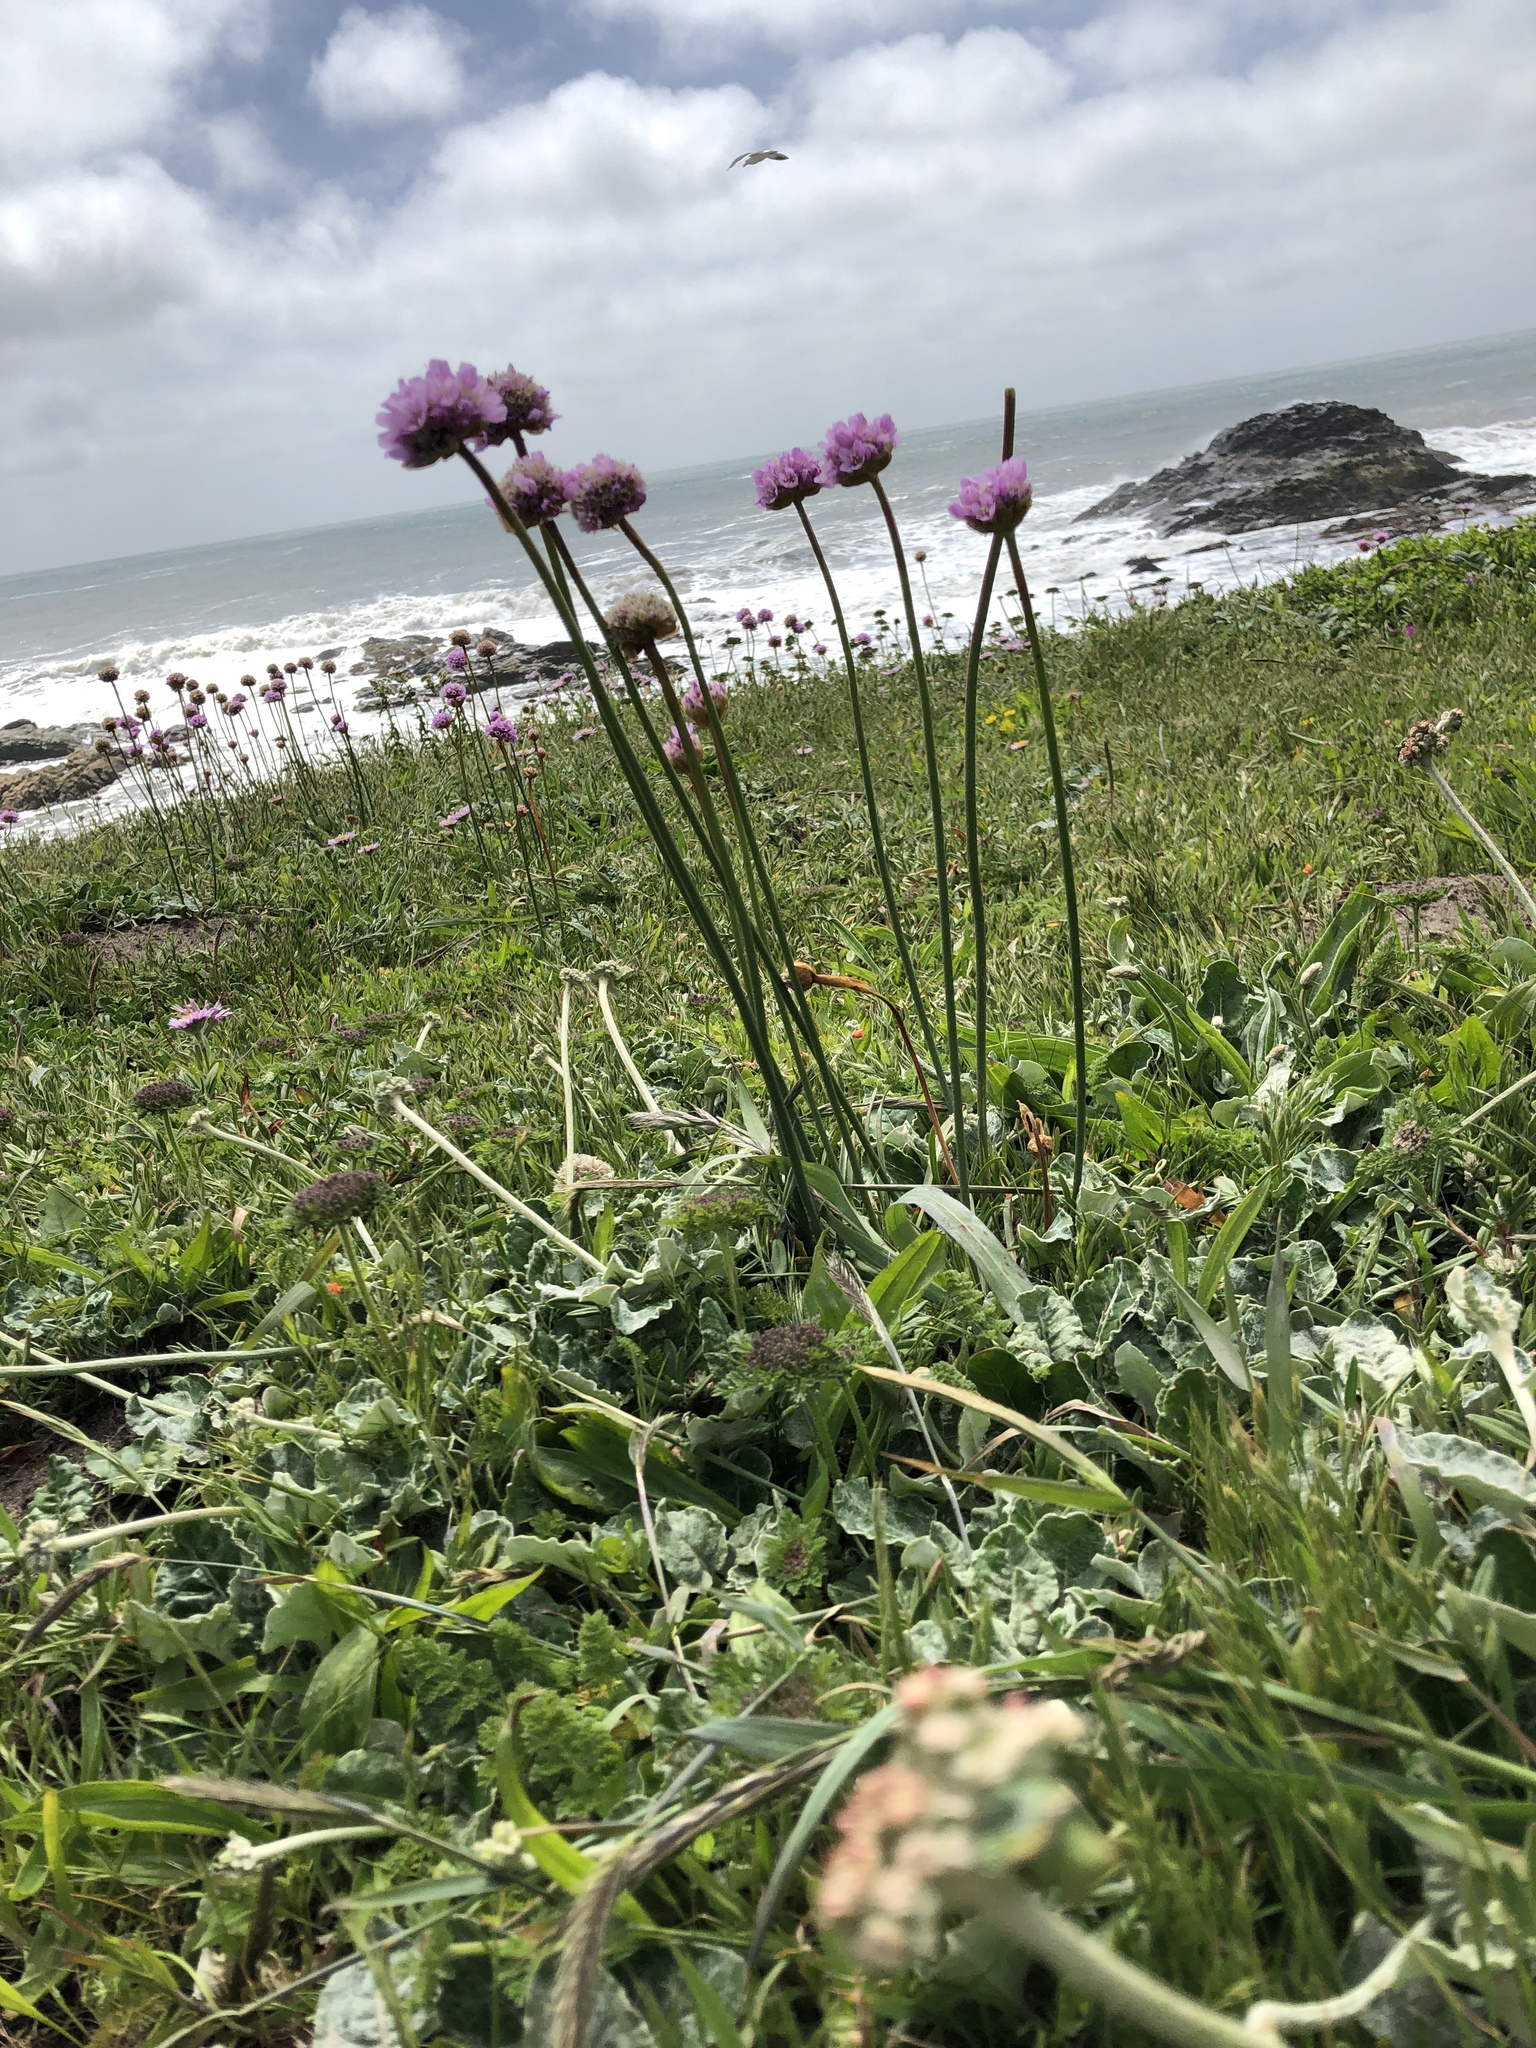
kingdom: Plantae
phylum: Tracheophyta
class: Magnoliopsida
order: Caryophyllales
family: Plumbaginaceae
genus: Armeria
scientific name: Armeria maritima
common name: Thrift
